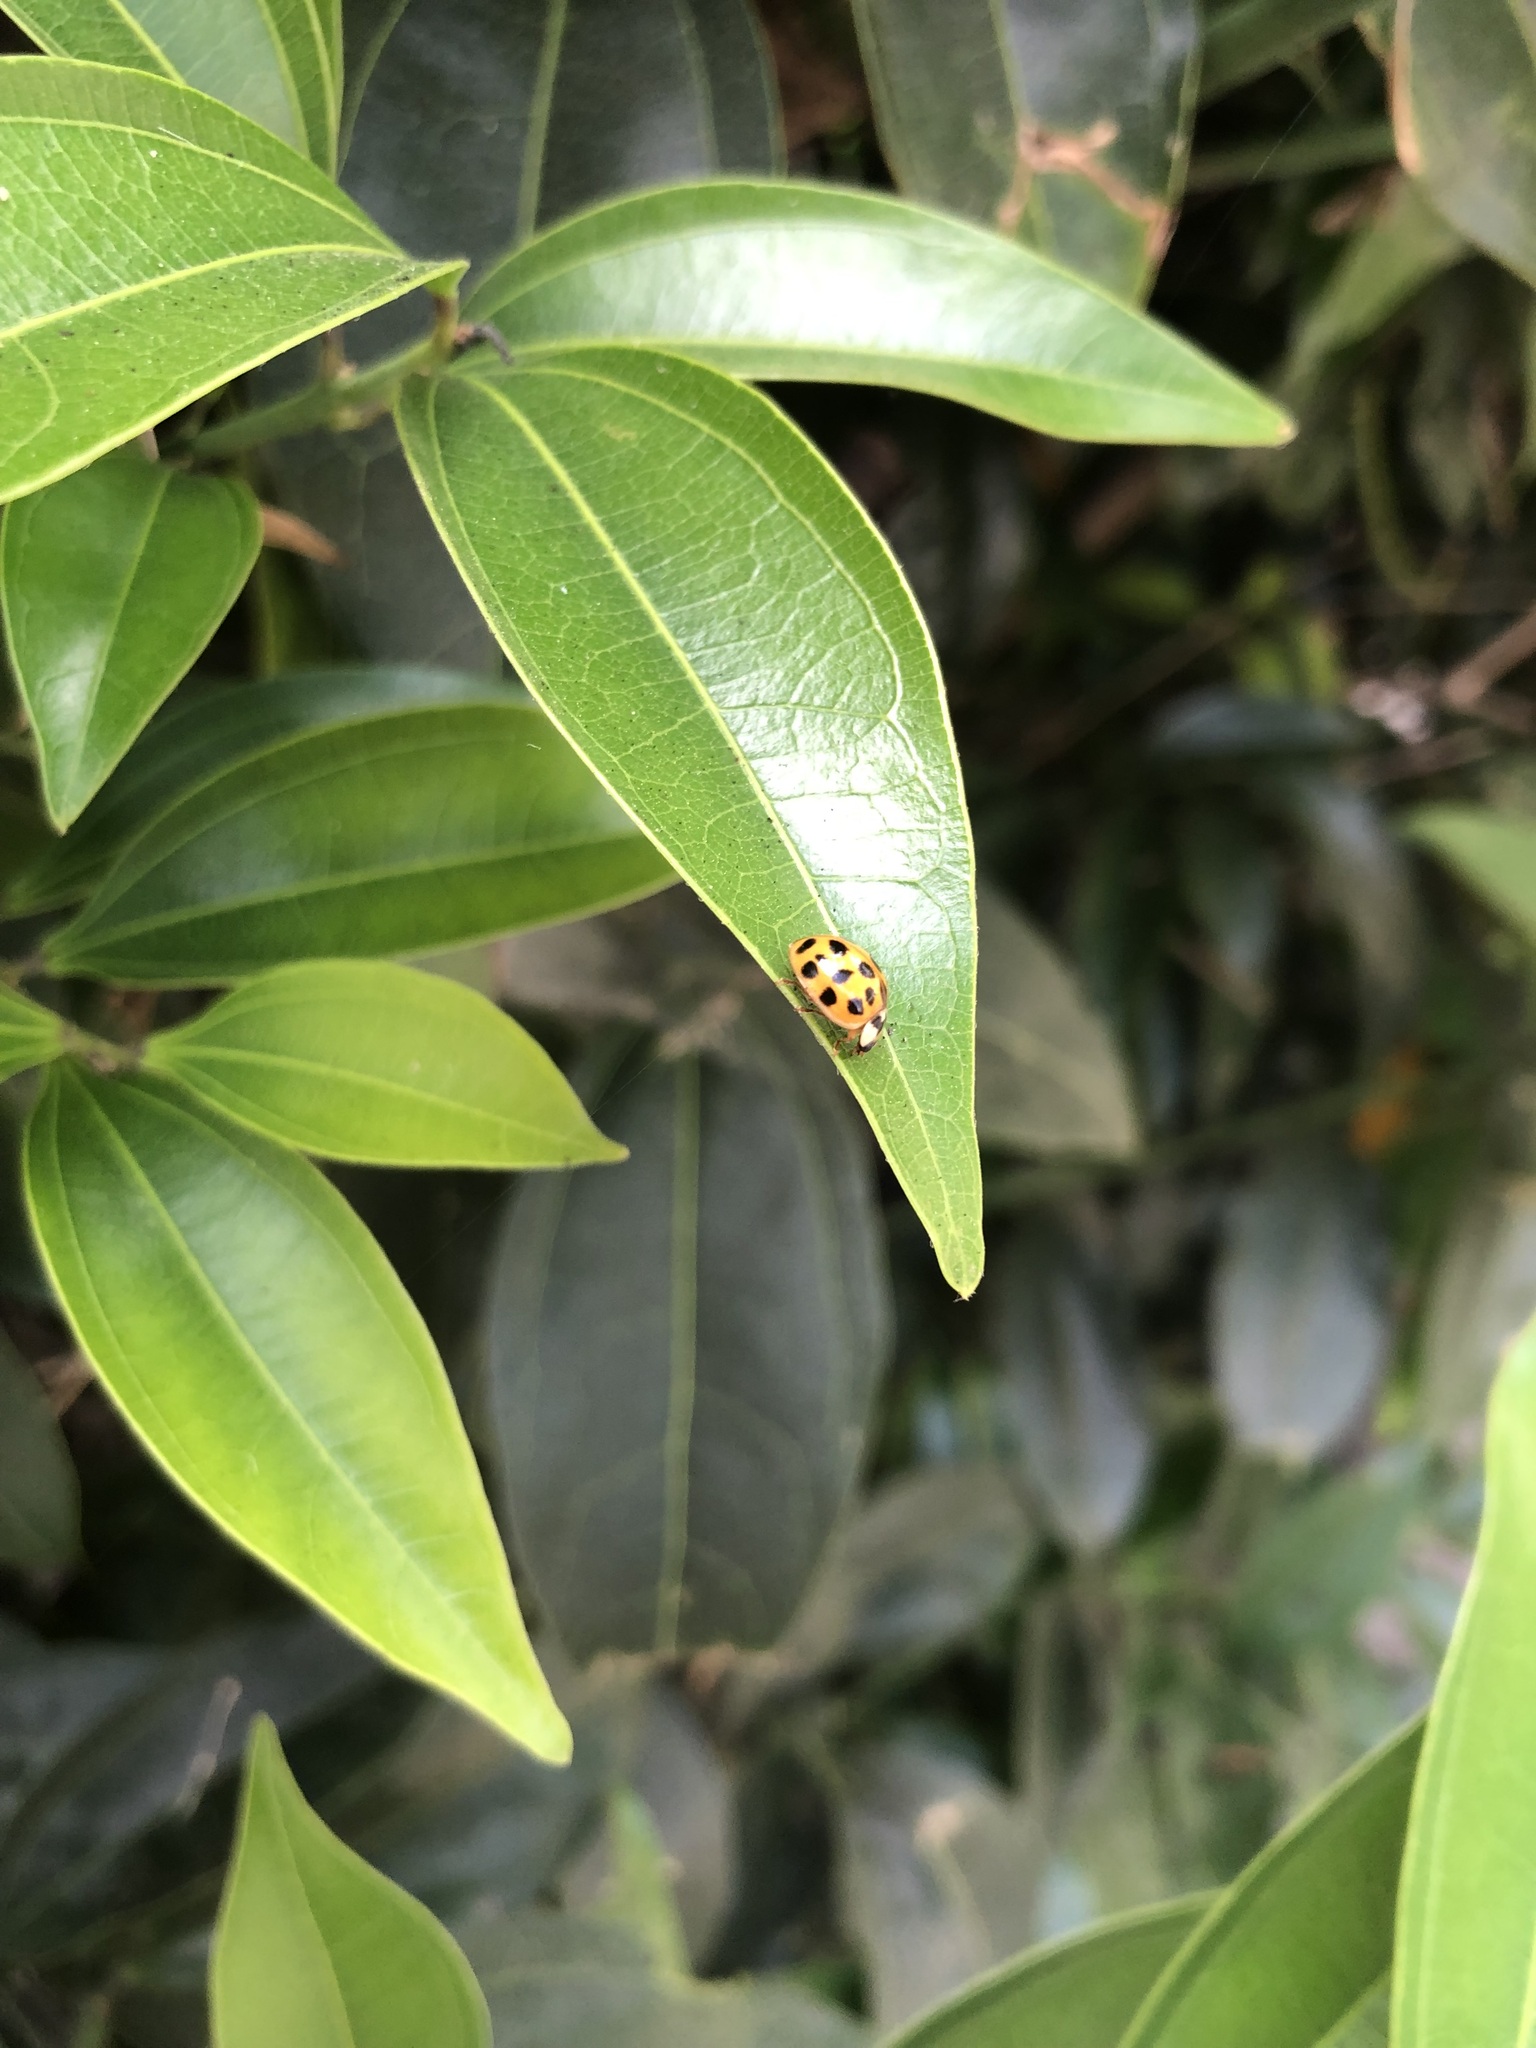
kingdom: Animalia
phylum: Arthropoda
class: Insecta
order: Coleoptera
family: Coccinellidae
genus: Harmonia
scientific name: Harmonia axyridis
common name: Harlequin ladybird
